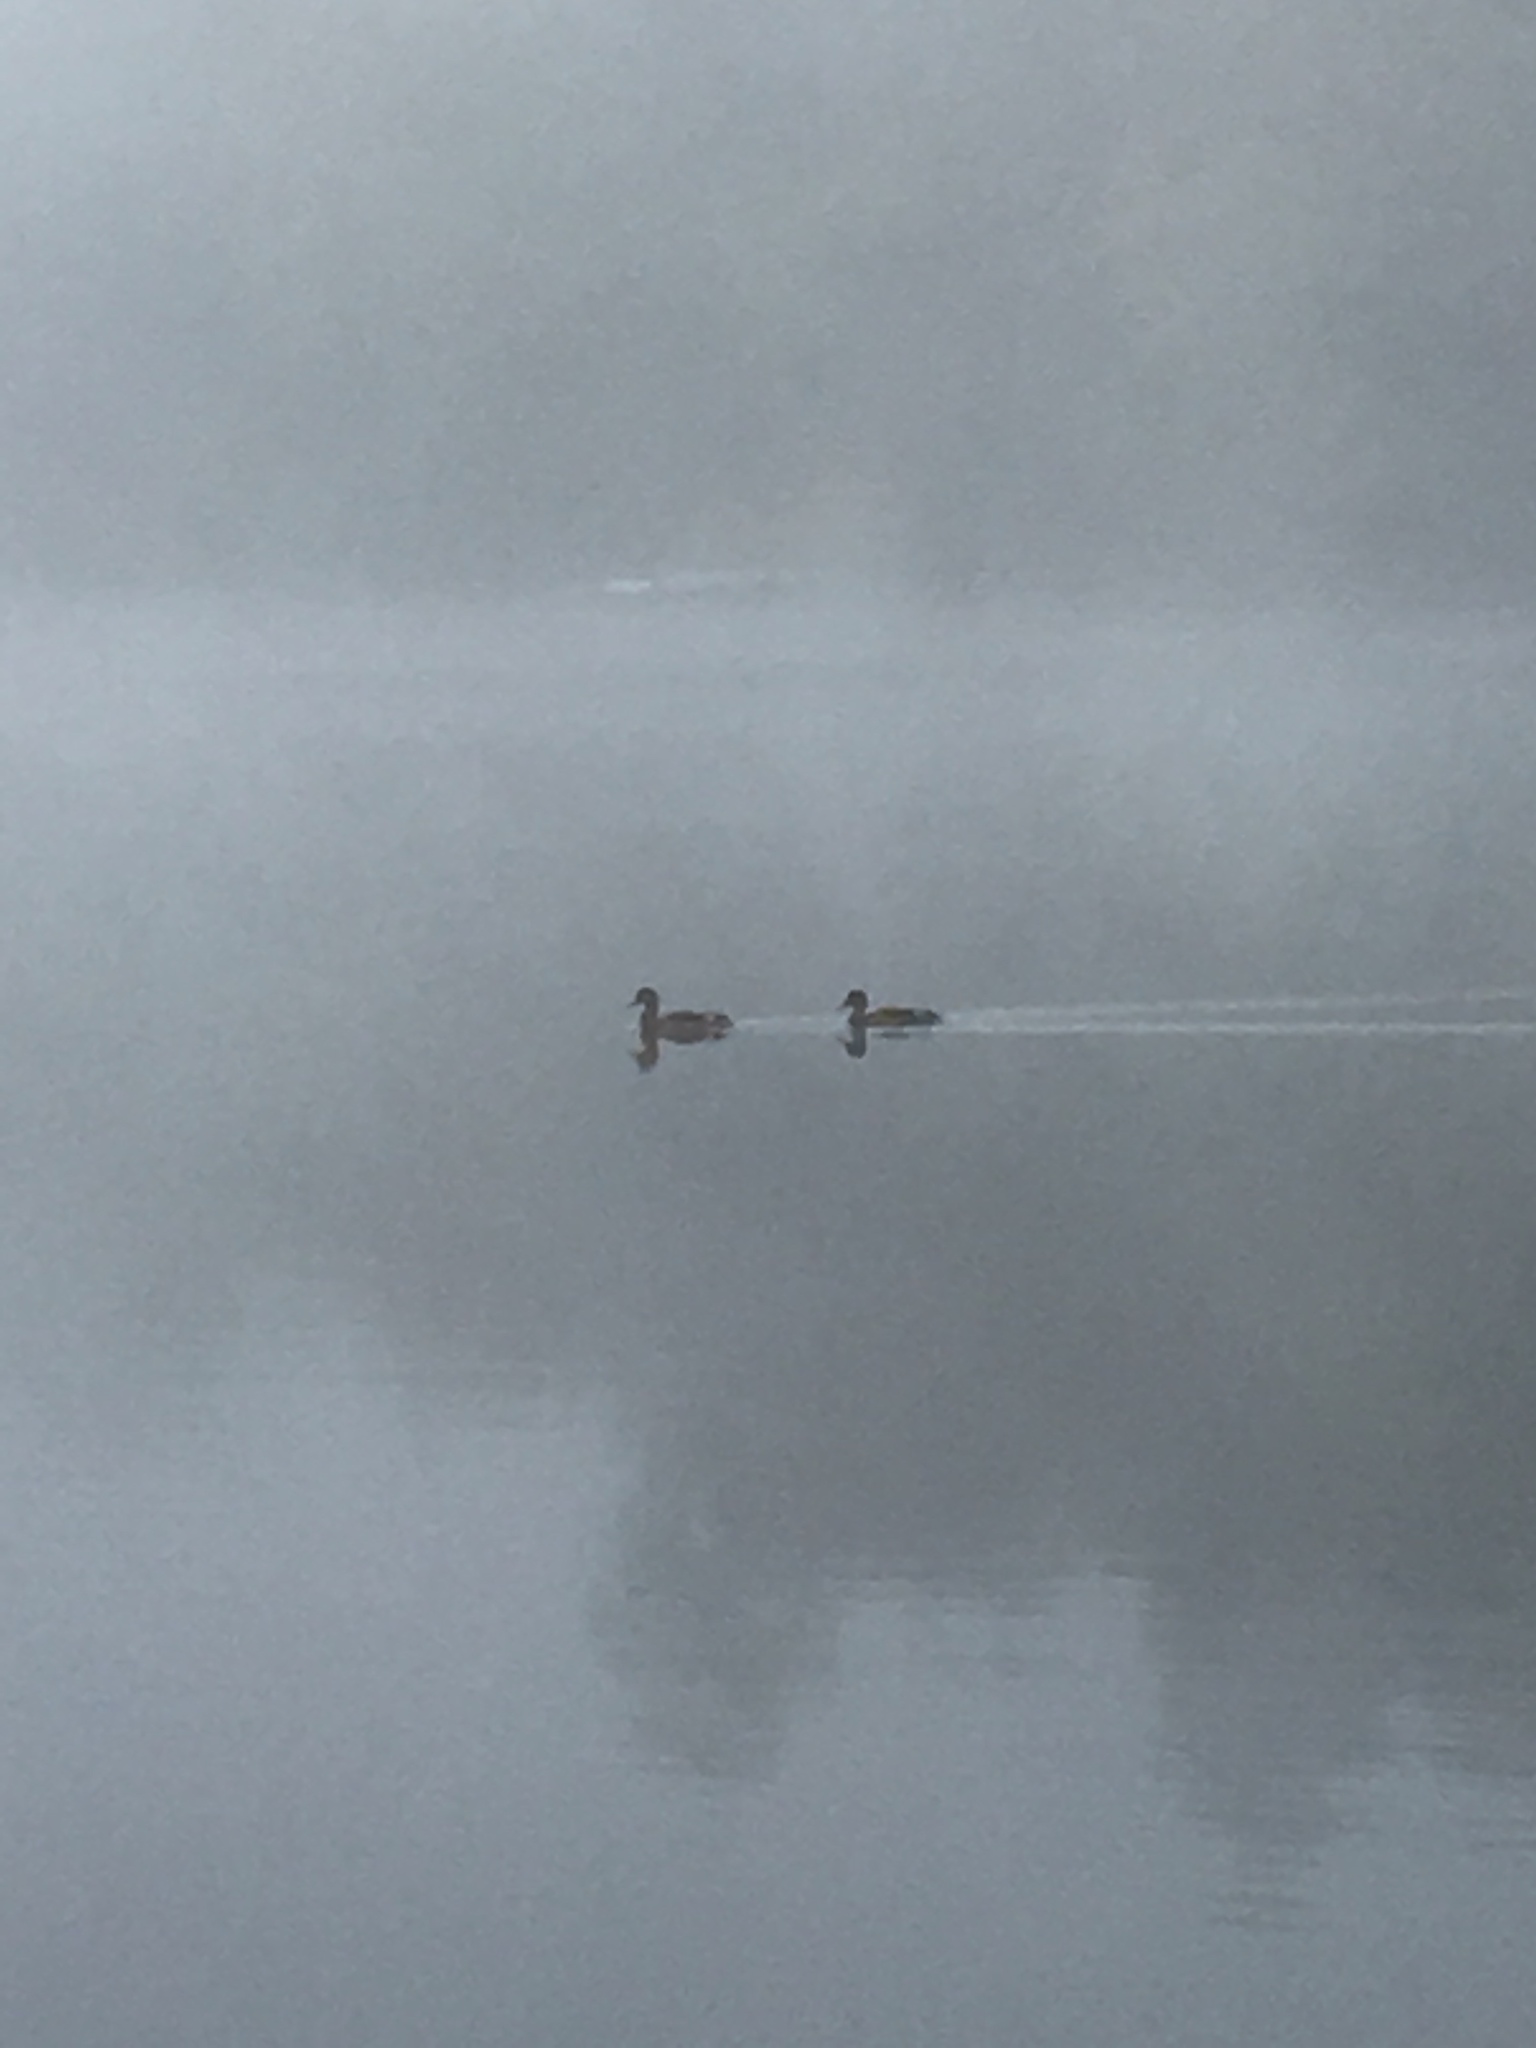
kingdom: Animalia
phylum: Chordata
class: Aves
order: Anseriformes
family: Anatidae
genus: Anas
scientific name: Anas platyrhynchos
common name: Mallard
